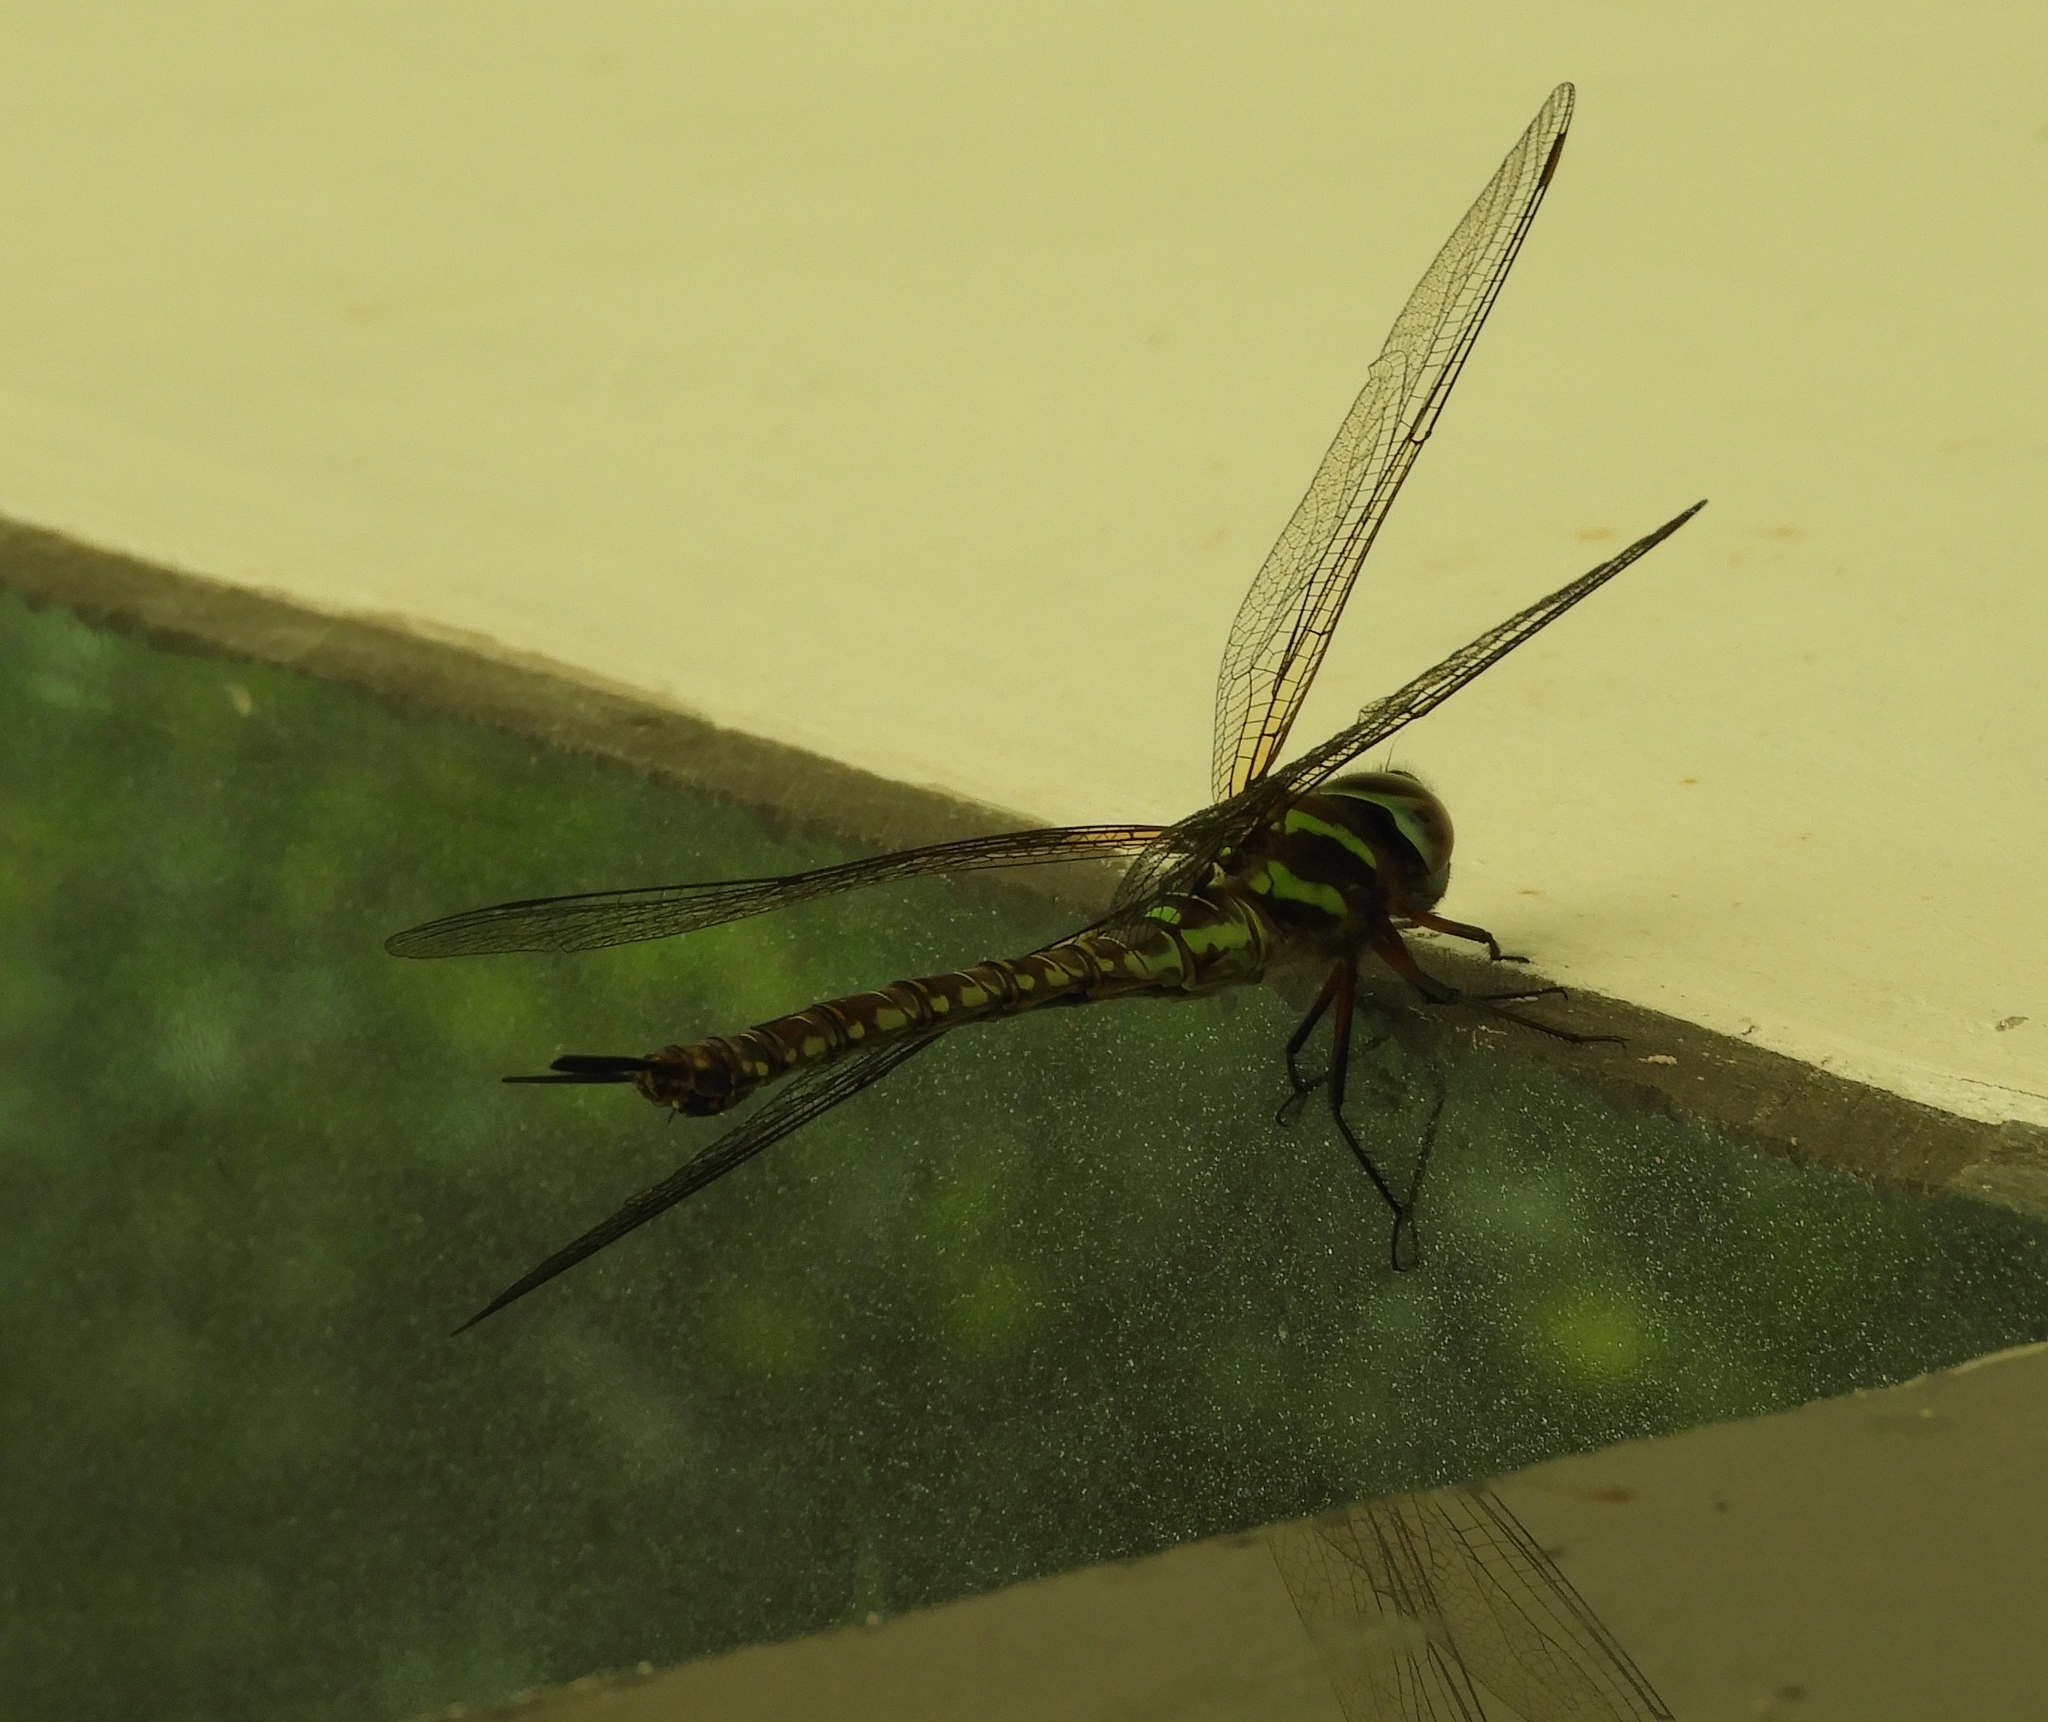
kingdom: Animalia
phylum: Arthropoda
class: Insecta
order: Odonata
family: Aeshnidae
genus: Rhionaeschna
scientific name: Rhionaeschna
